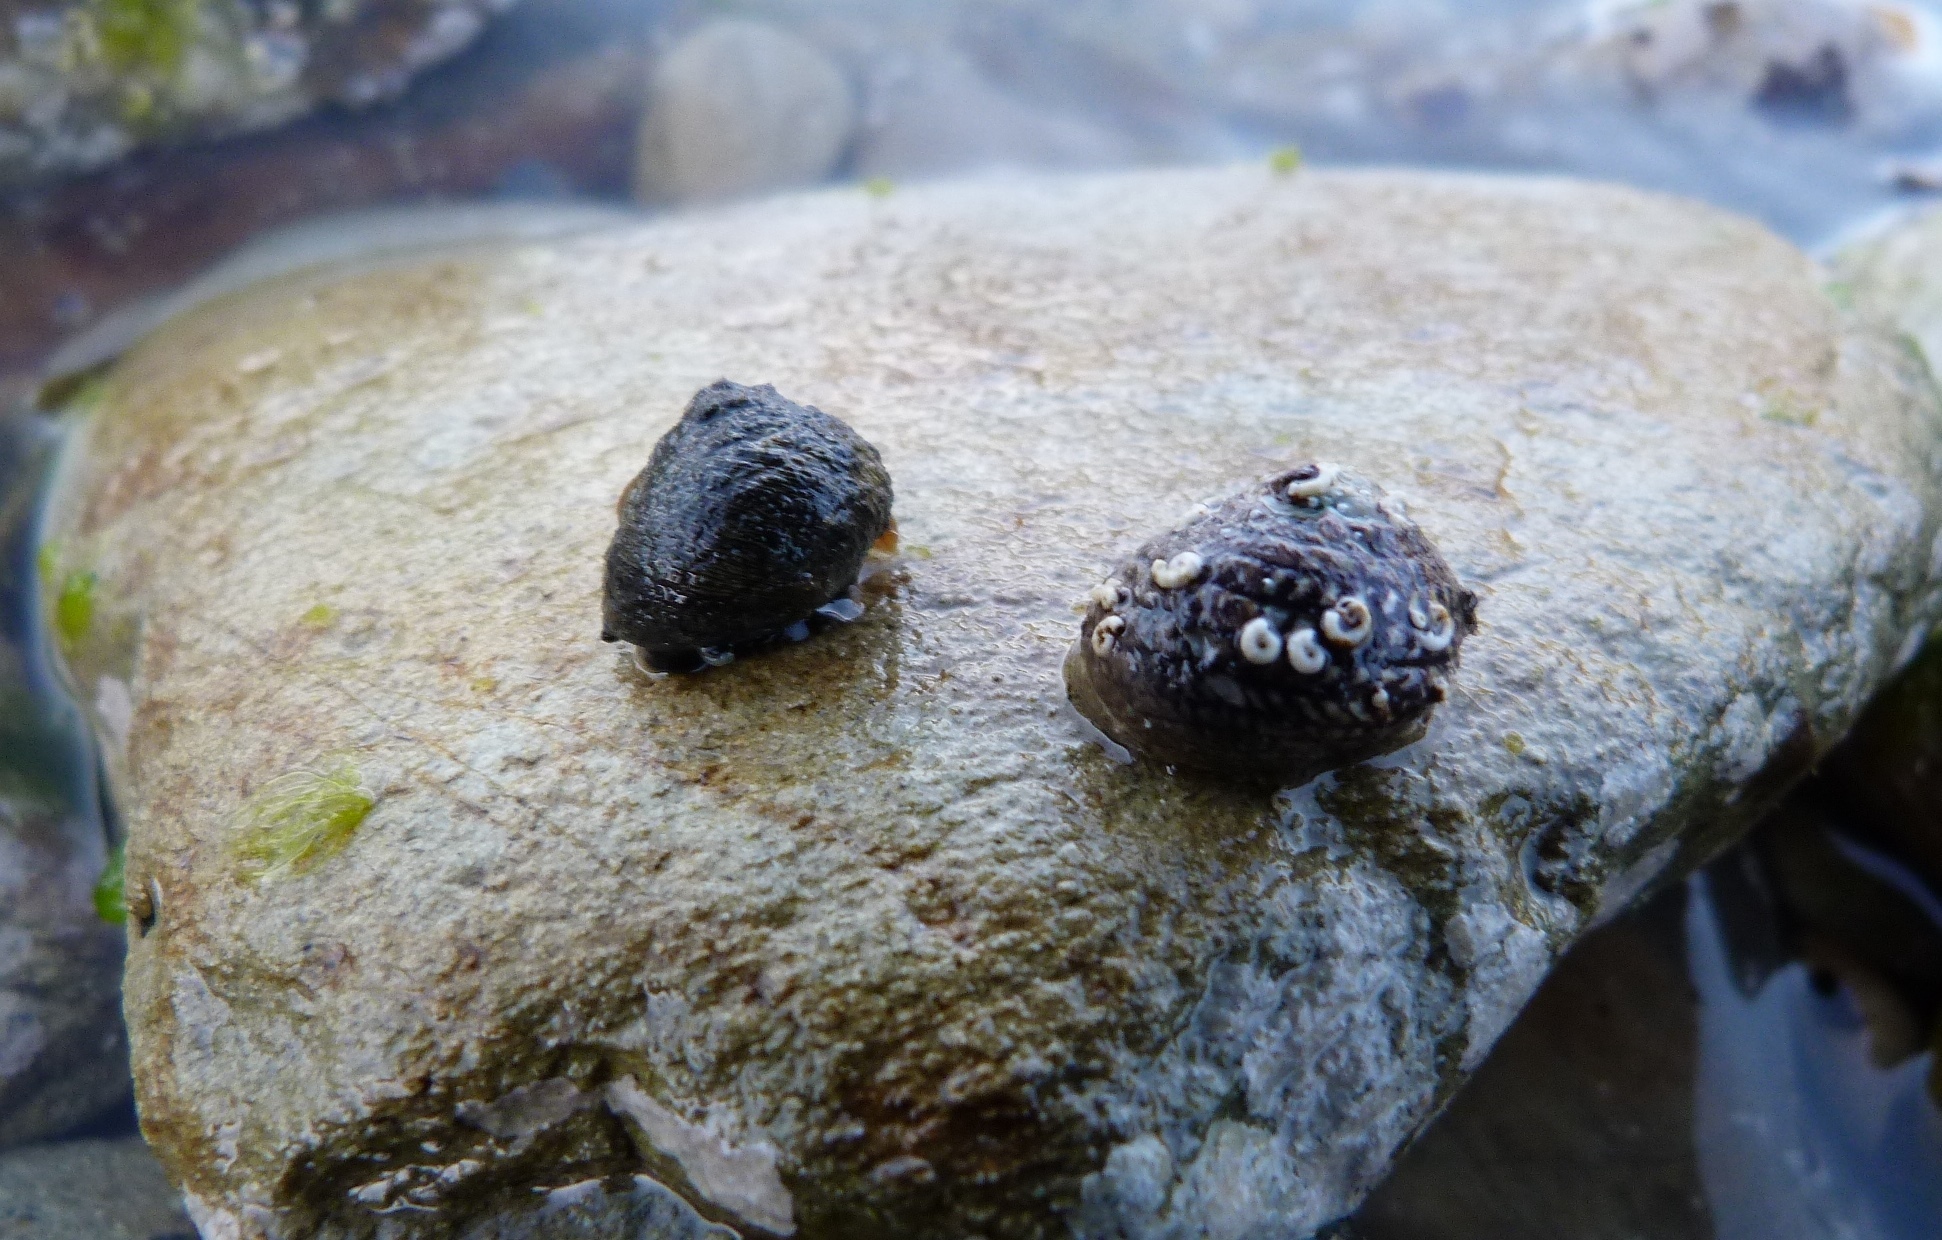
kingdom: Animalia
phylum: Mollusca
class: Gastropoda
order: Trochida
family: Trochidae
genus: Diloma
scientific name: Diloma aethiops
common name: Scorched monodont
